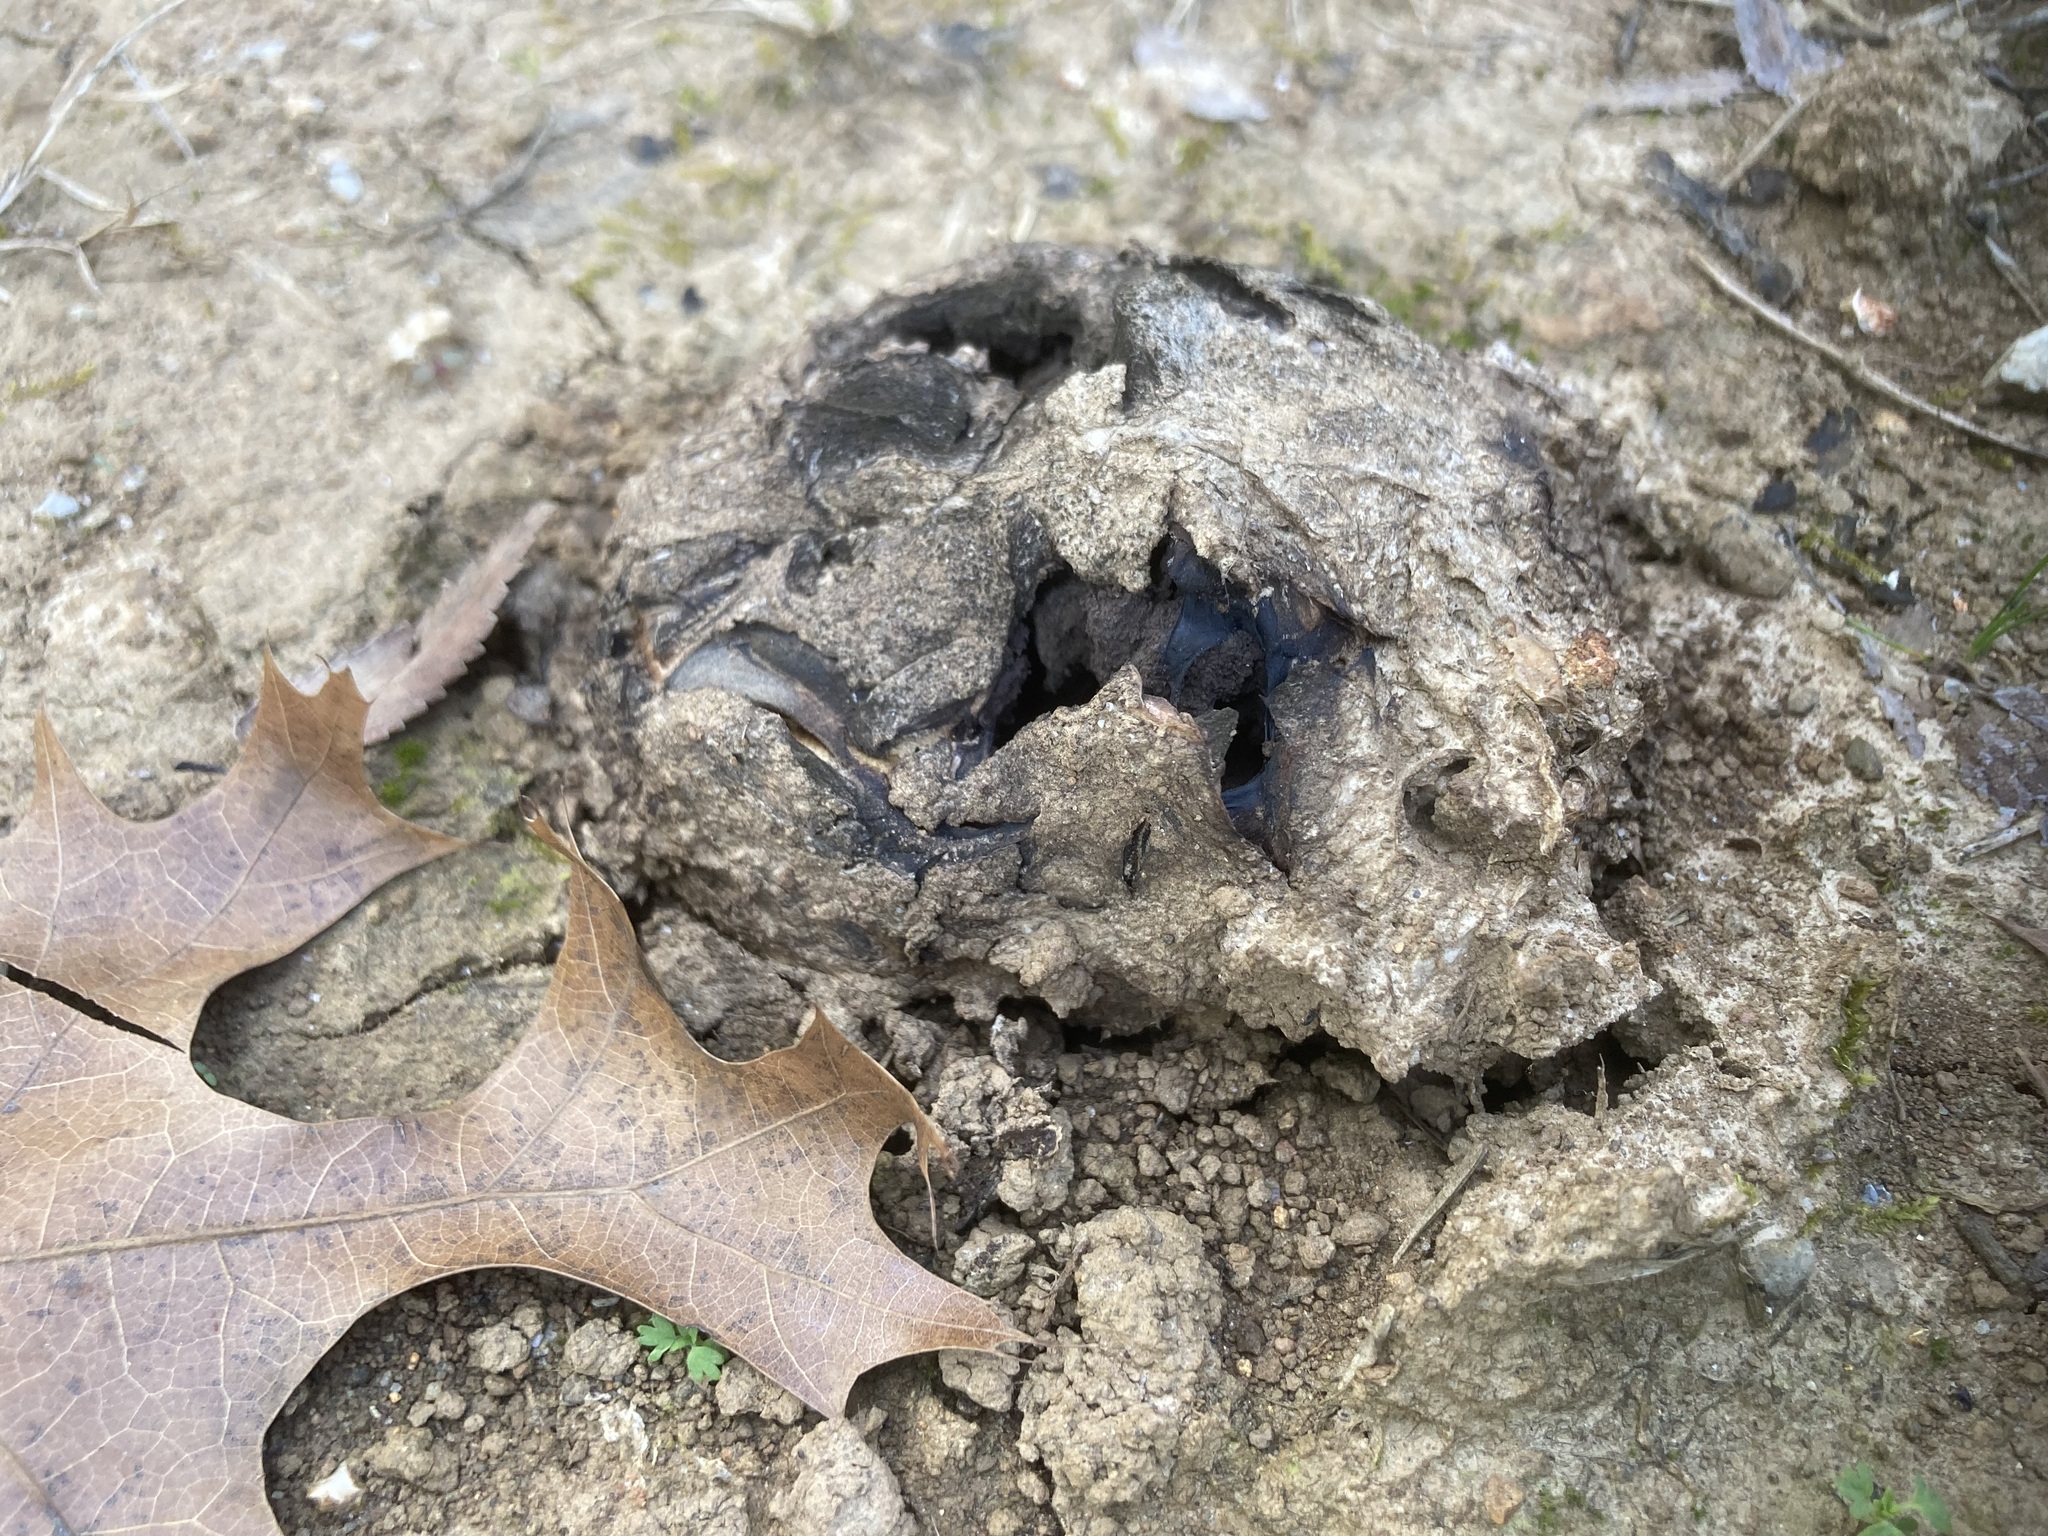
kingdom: Fungi
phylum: Basidiomycota
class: Agaricomycetes
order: Boletales
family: Sclerodermataceae
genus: Scleroderma
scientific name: Scleroderma polyrhizum
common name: Many-rooted earthball
